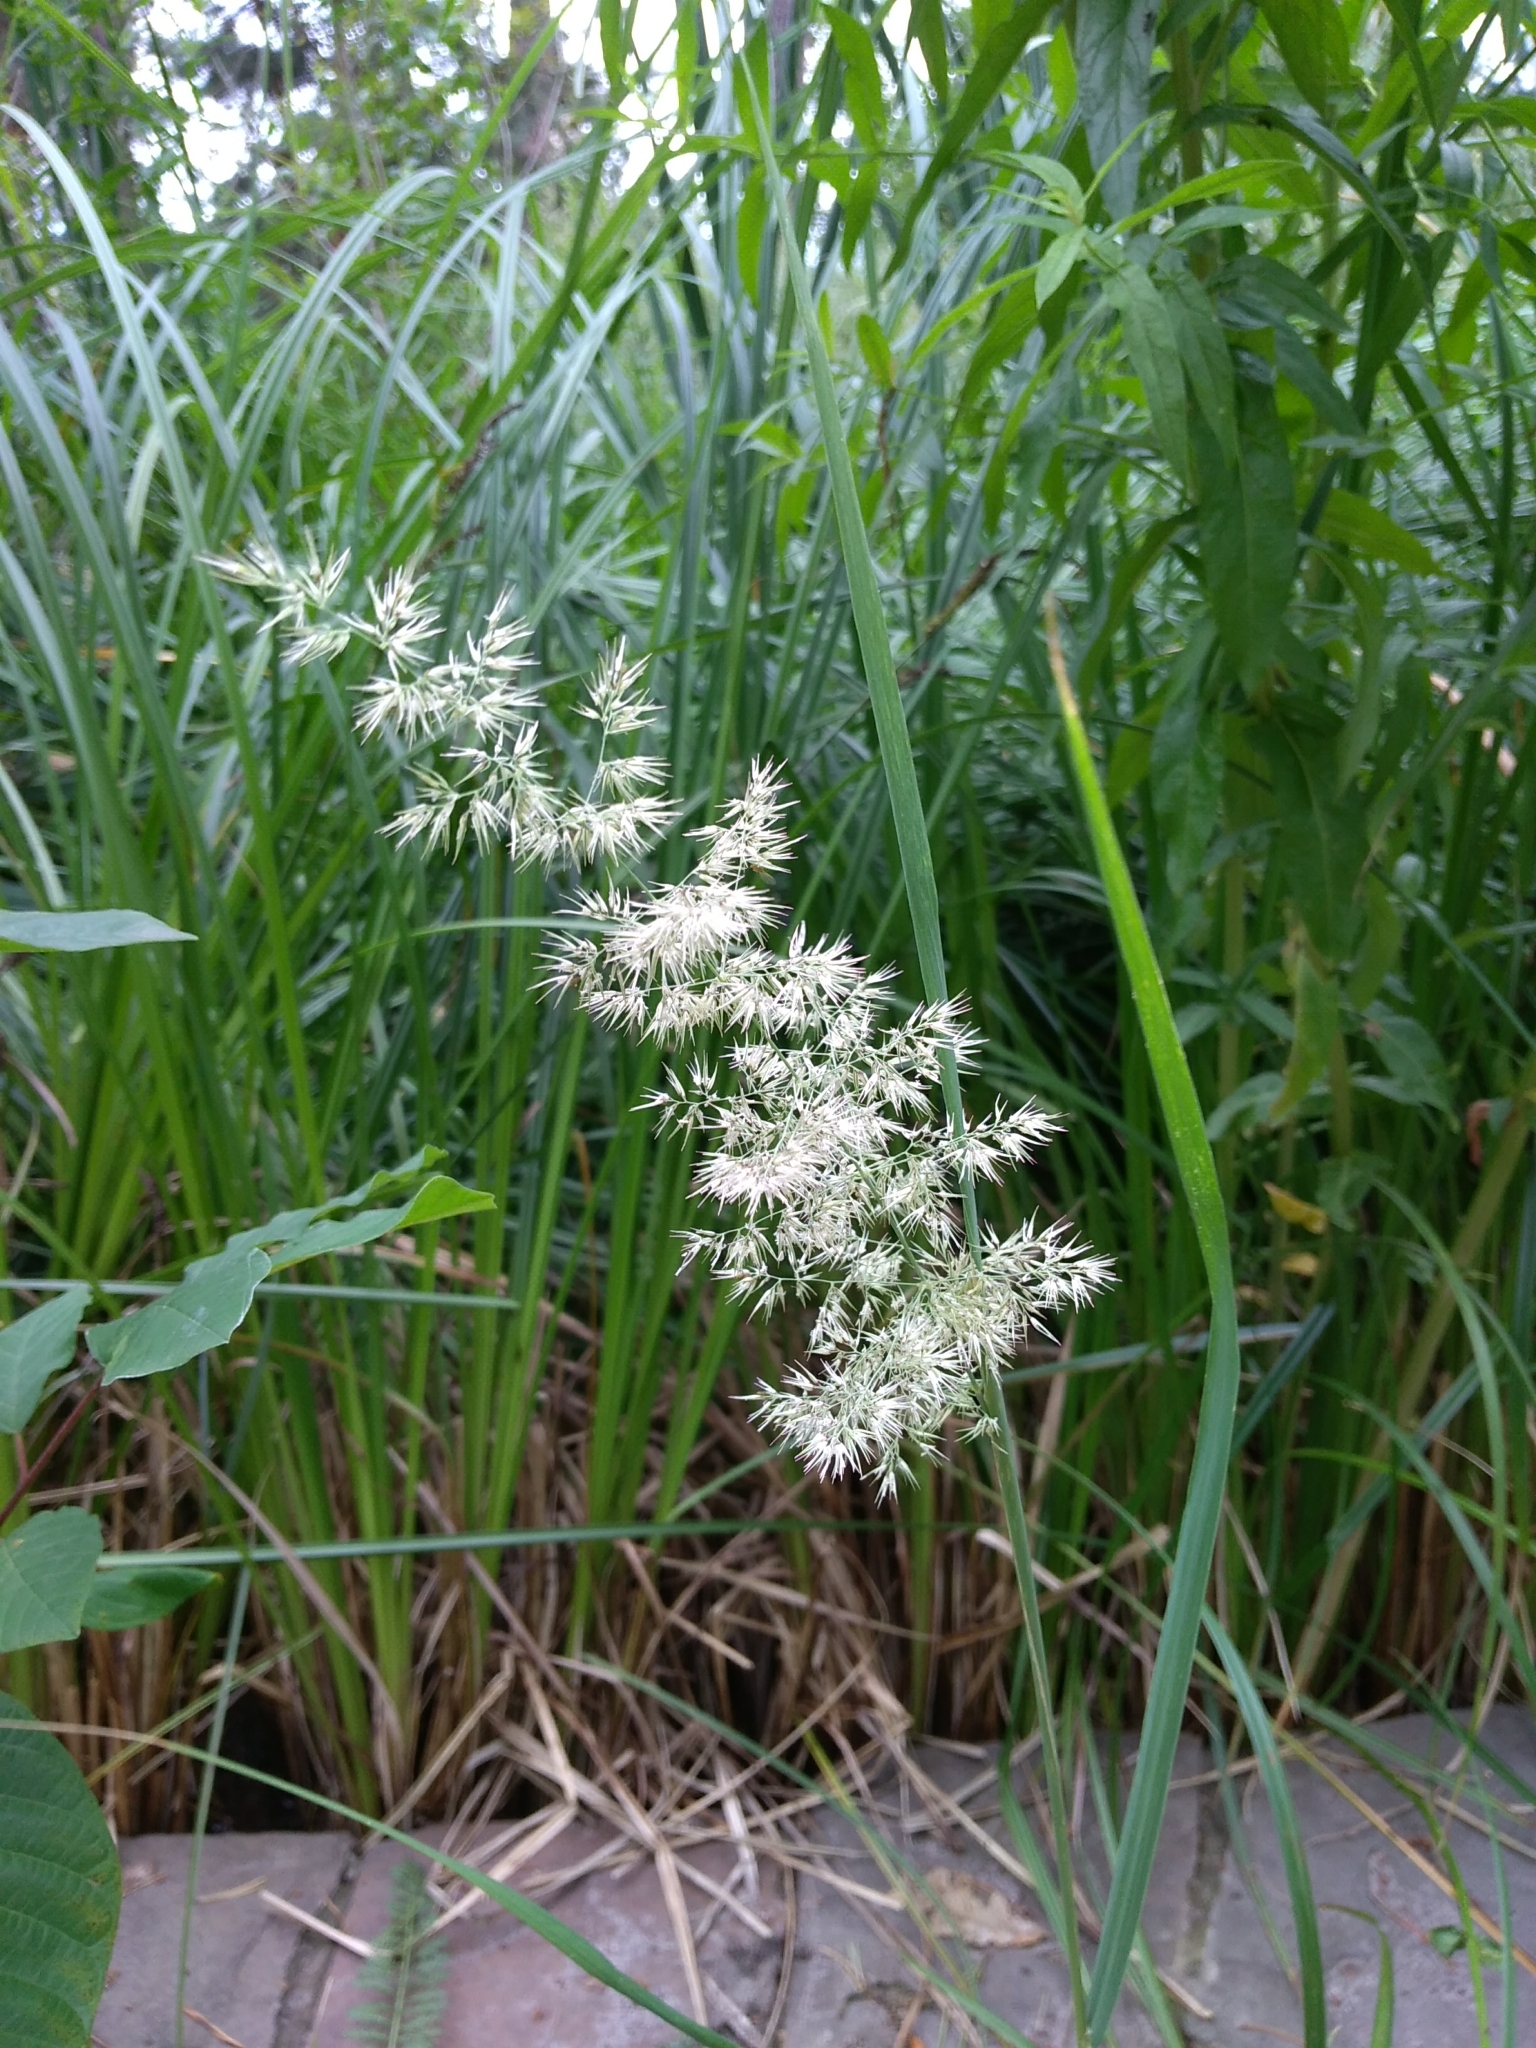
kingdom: Plantae
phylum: Tracheophyta
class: Liliopsida
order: Poales
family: Poaceae
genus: Calamagrostis
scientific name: Calamagrostis epigejos
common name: Wood small-reed
